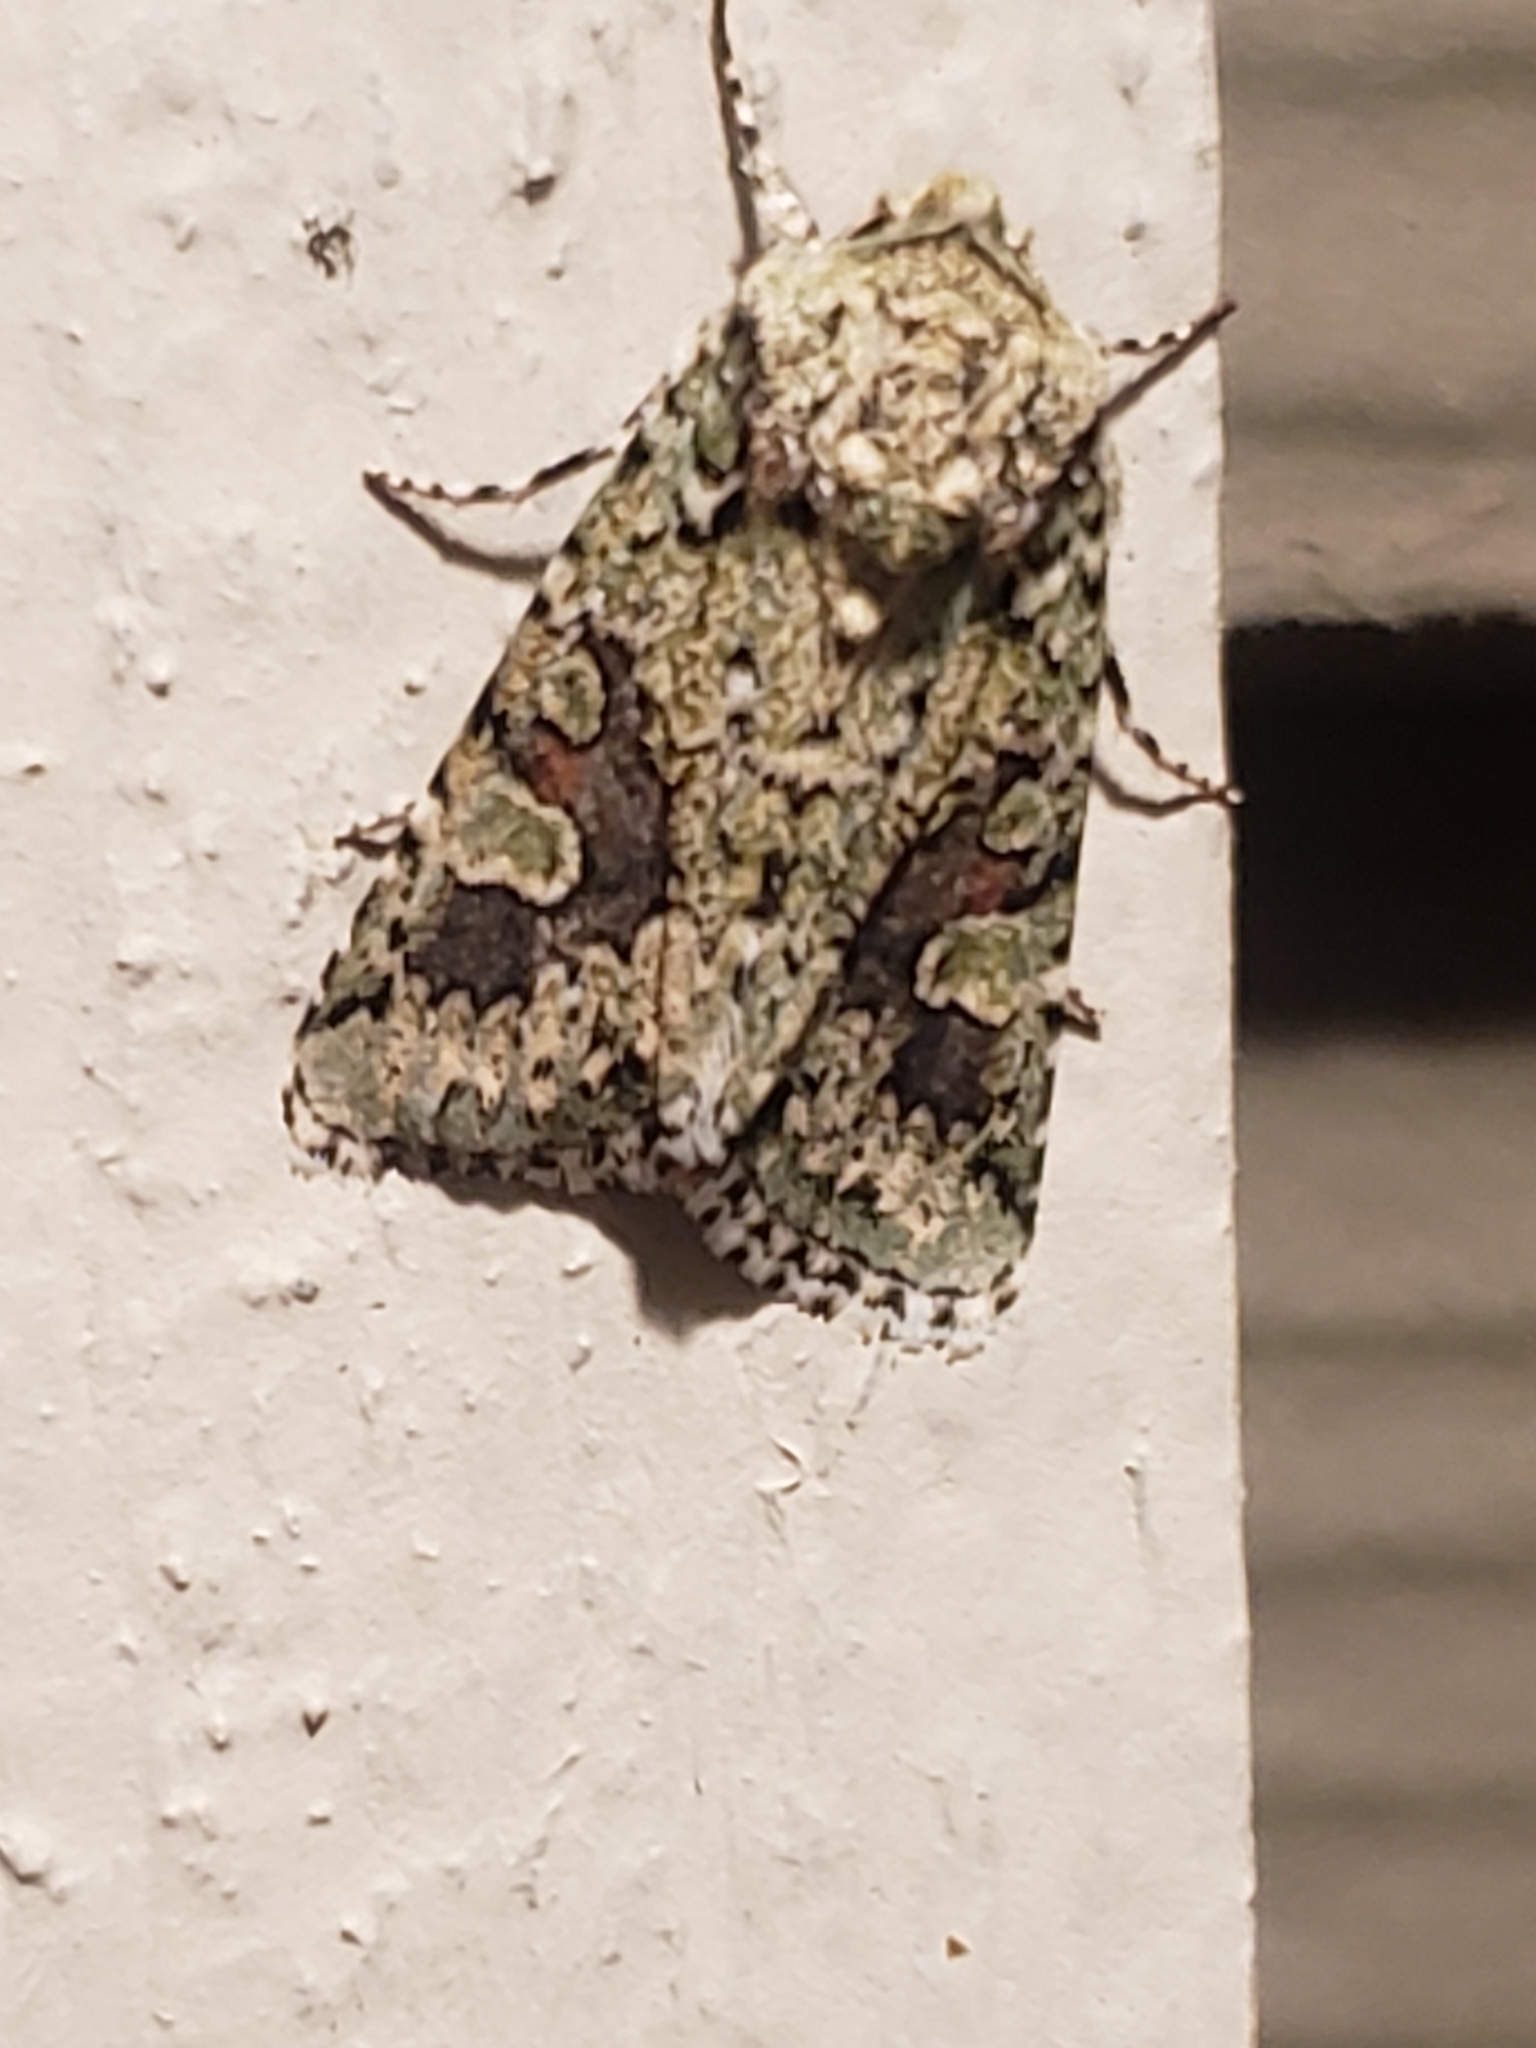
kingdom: Animalia
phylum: Arthropoda
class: Insecta
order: Lepidoptera
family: Noctuidae
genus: Lacinipolia
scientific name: Lacinipolia laudabilis
